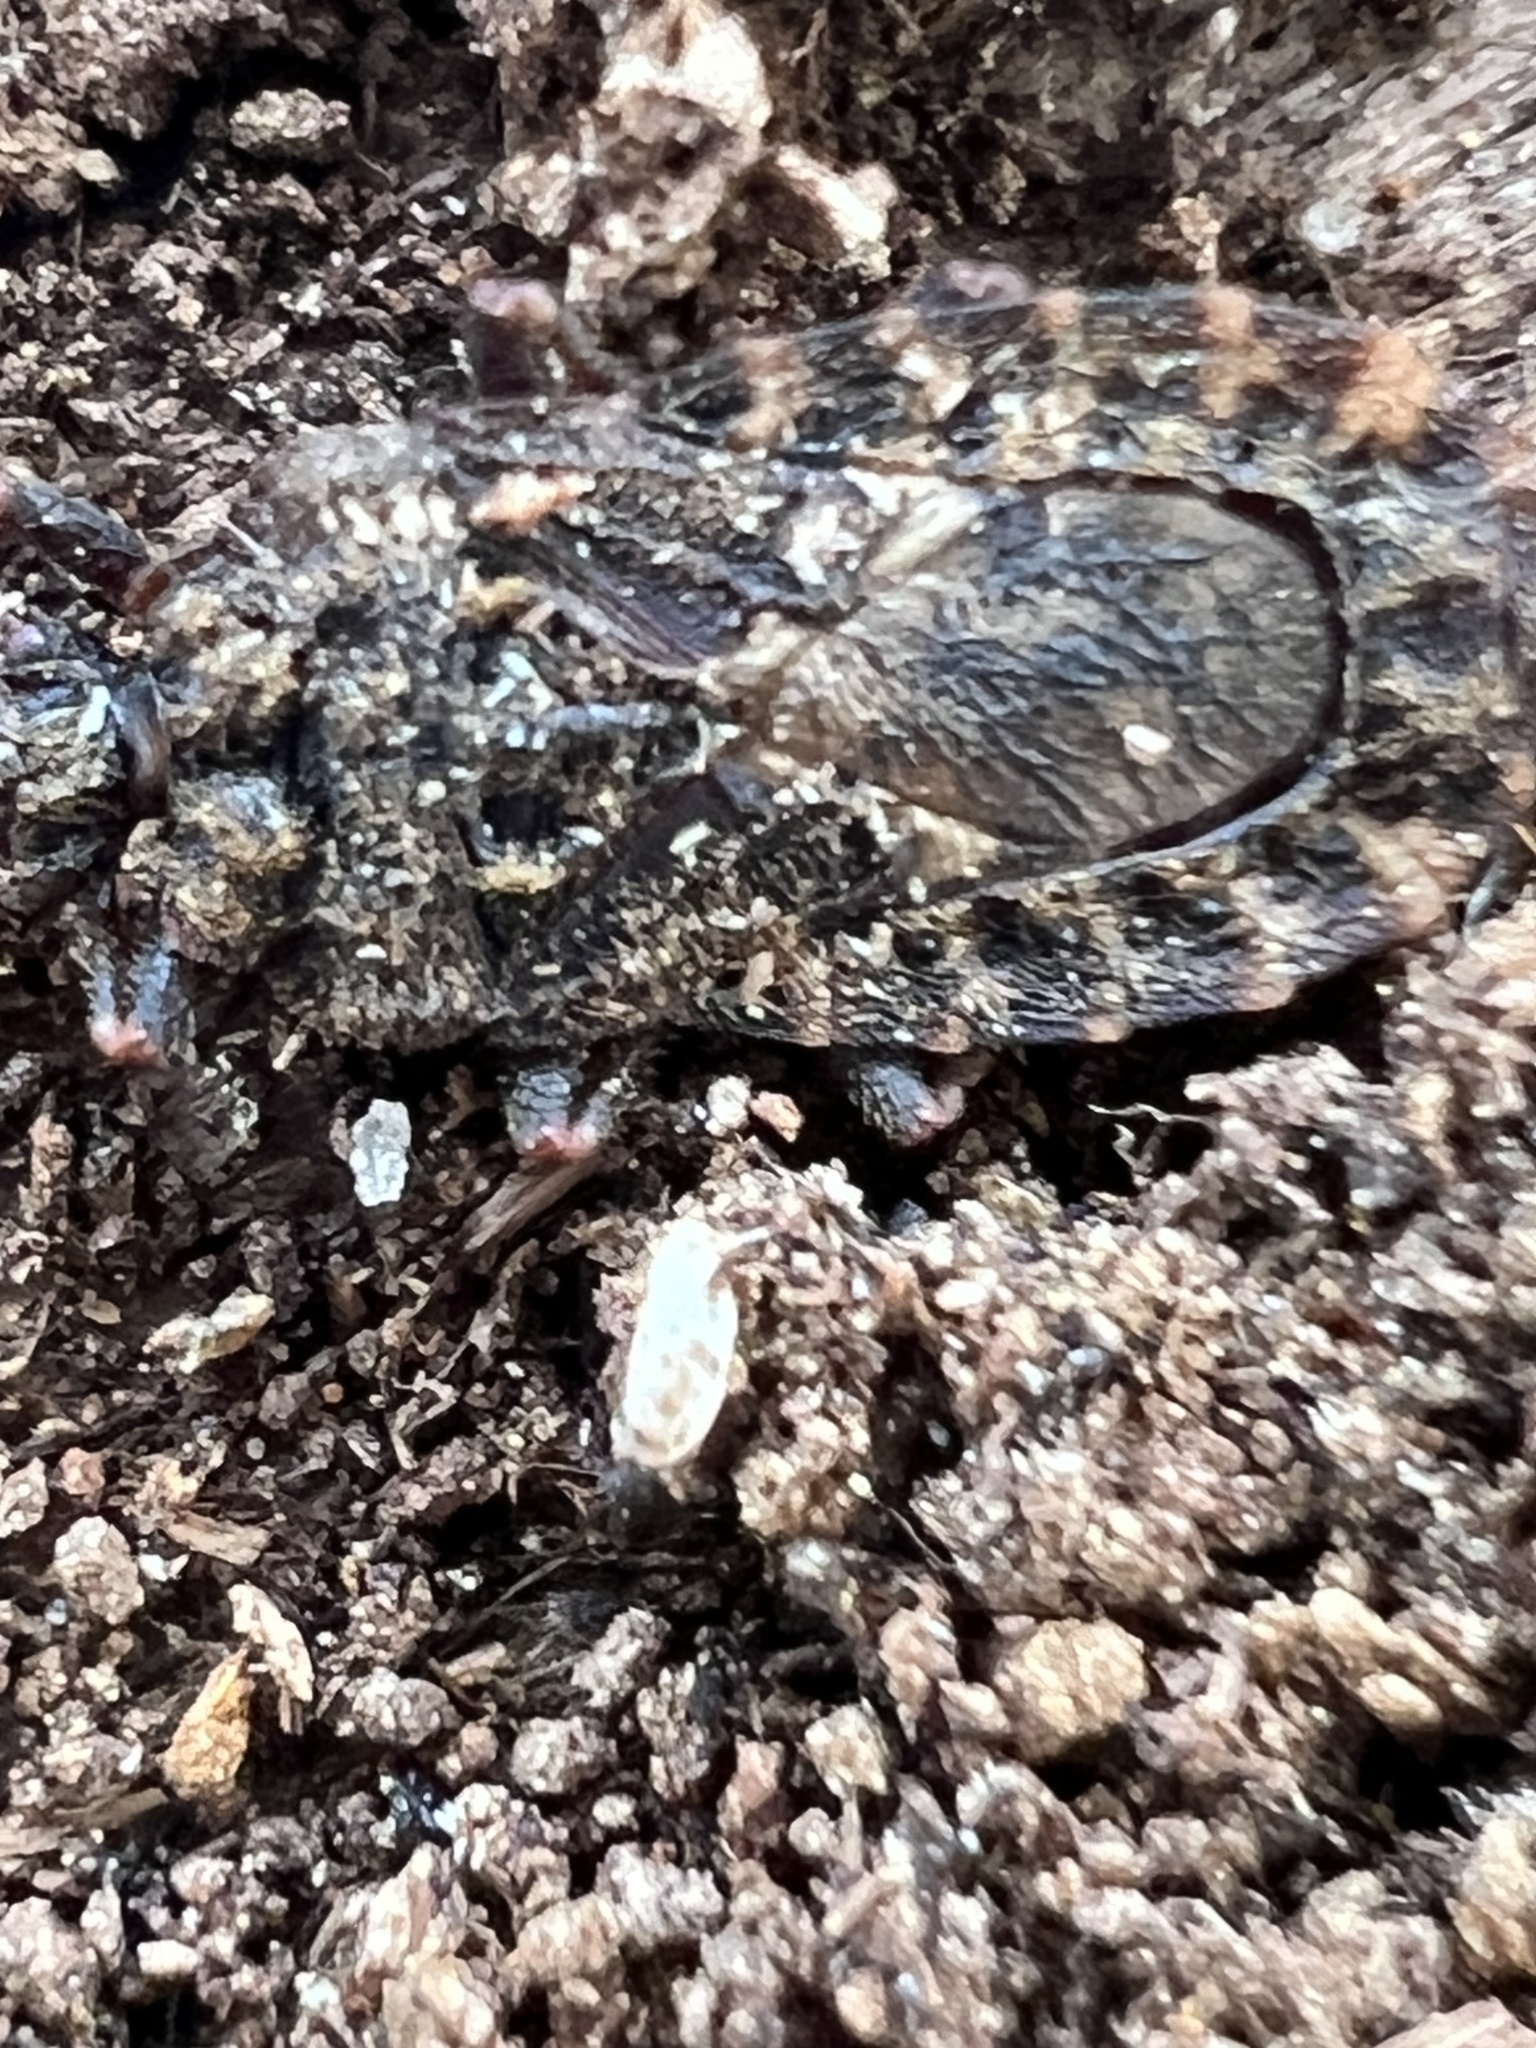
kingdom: Animalia
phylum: Arthropoda
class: Insecta
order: Hemiptera
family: Aradidae
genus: Mezira
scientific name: Mezira
